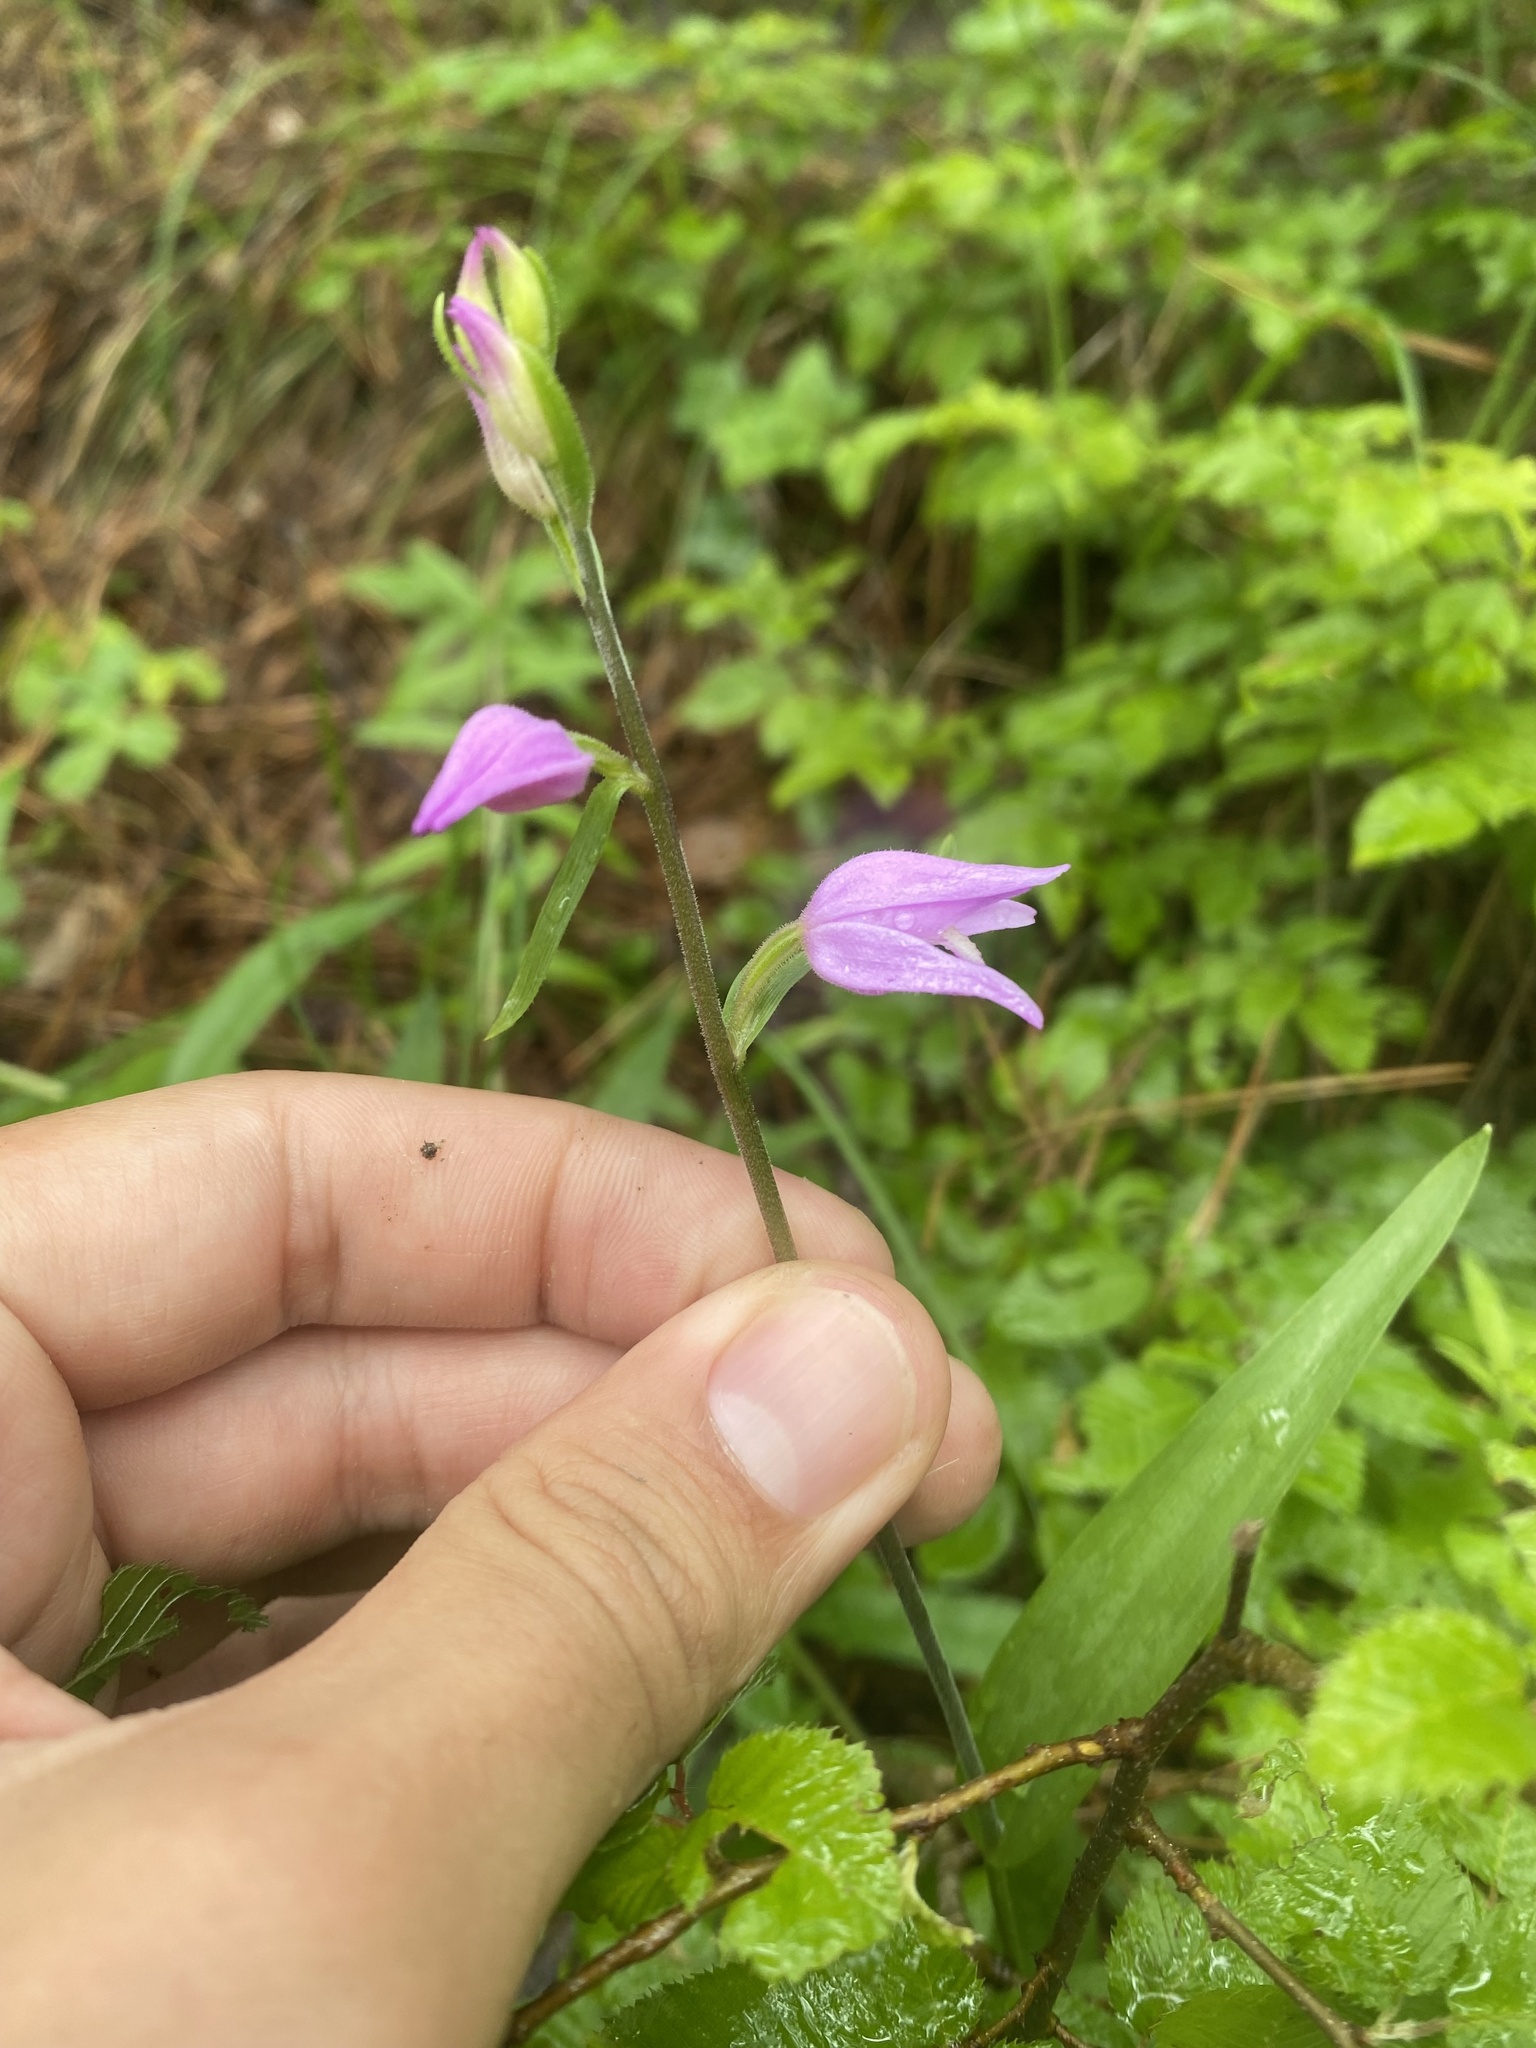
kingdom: Plantae
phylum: Tracheophyta
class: Liliopsida
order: Asparagales
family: Orchidaceae
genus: Cephalanthera
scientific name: Cephalanthera rubra
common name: Red helleborine
